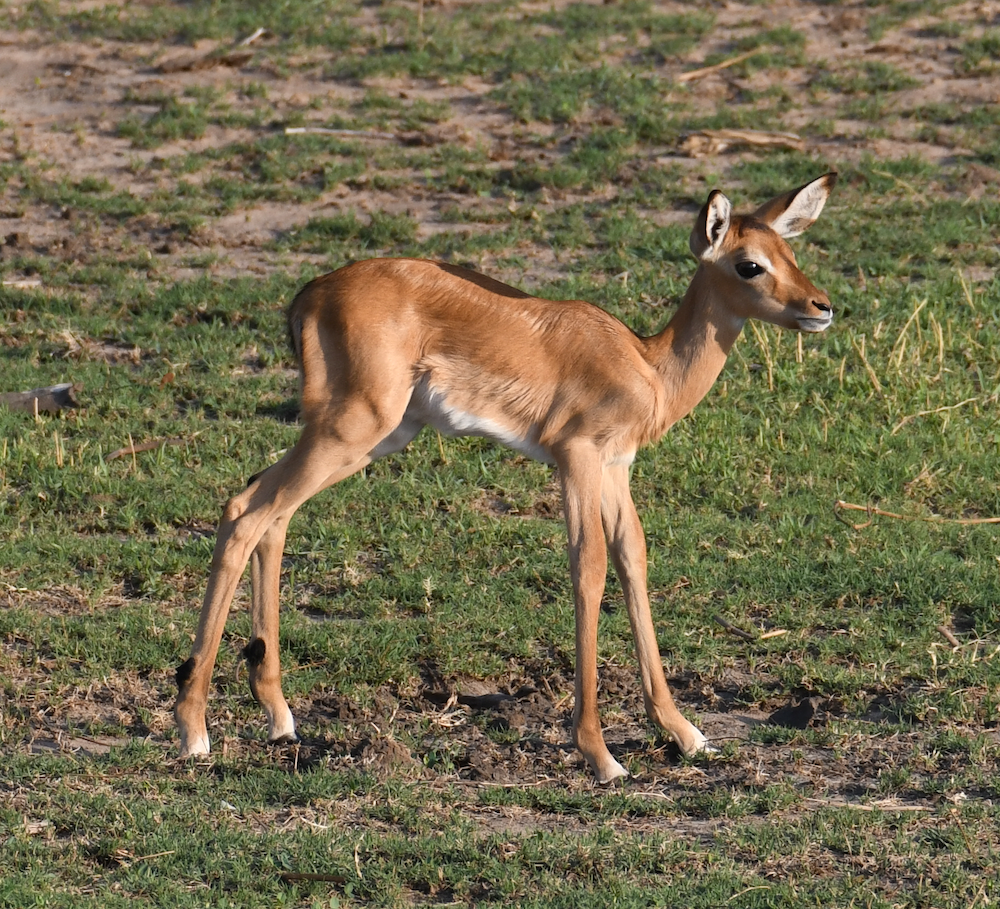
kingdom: Animalia
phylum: Chordata
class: Mammalia
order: Artiodactyla
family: Bovidae
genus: Aepyceros
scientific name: Aepyceros melampus
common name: Impala
